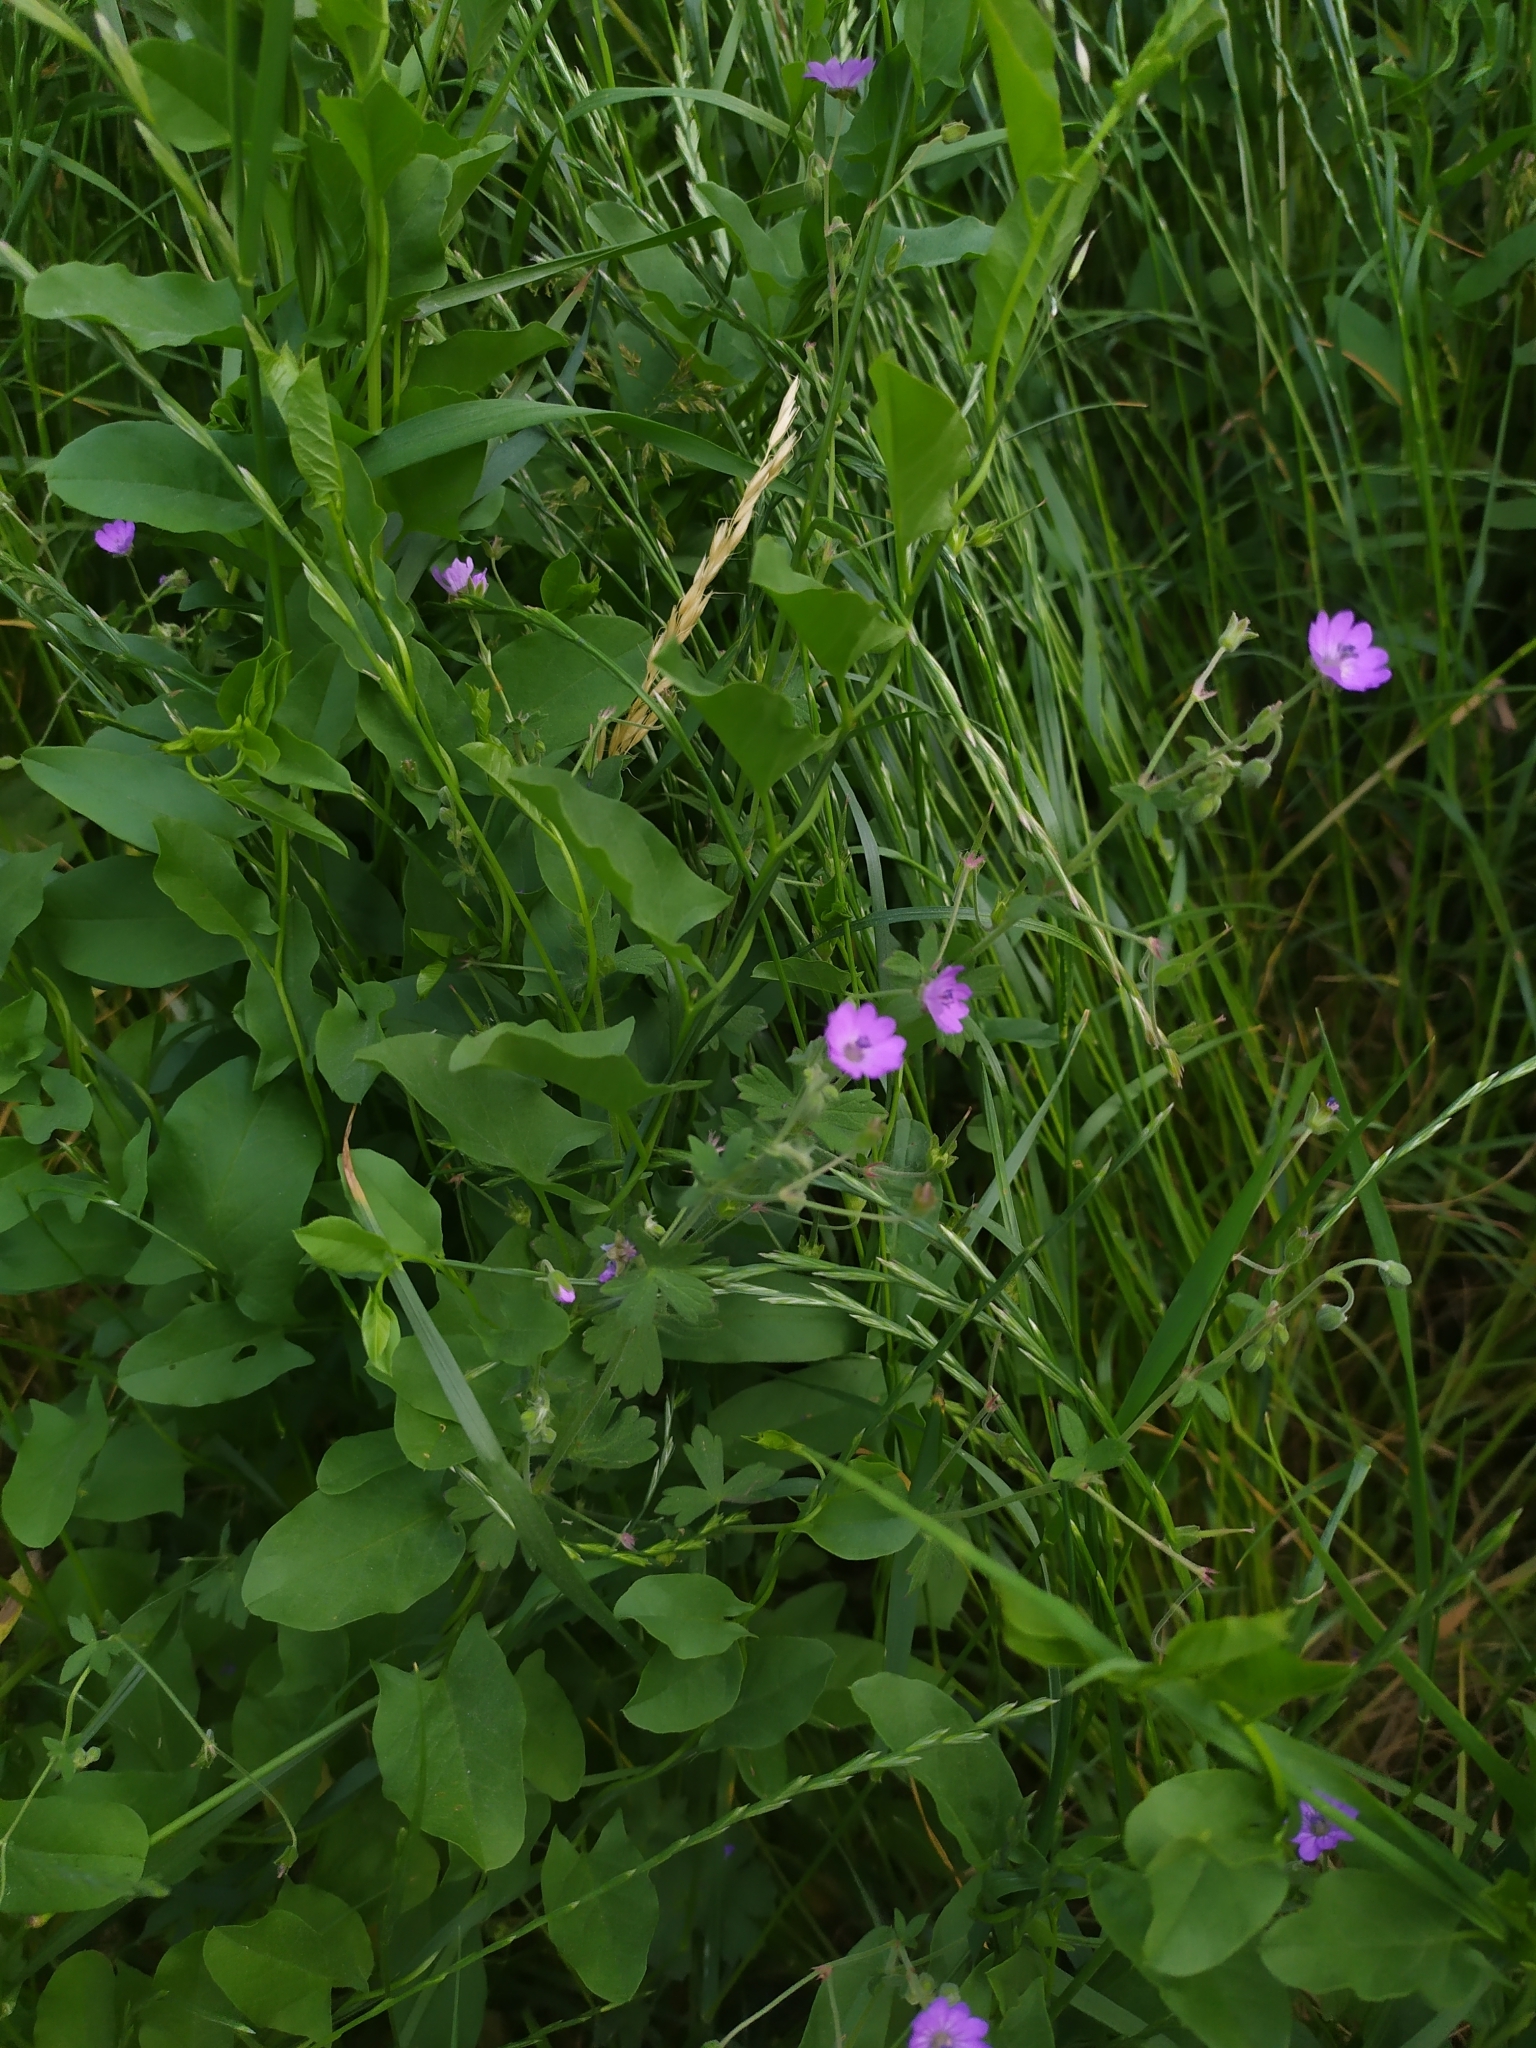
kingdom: Plantae
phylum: Tracheophyta
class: Magnoliopsida
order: Geraniales
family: Geraniaceae
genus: Geranium
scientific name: Geranium pyrenaicum
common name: Hedgerow crane's-bill
